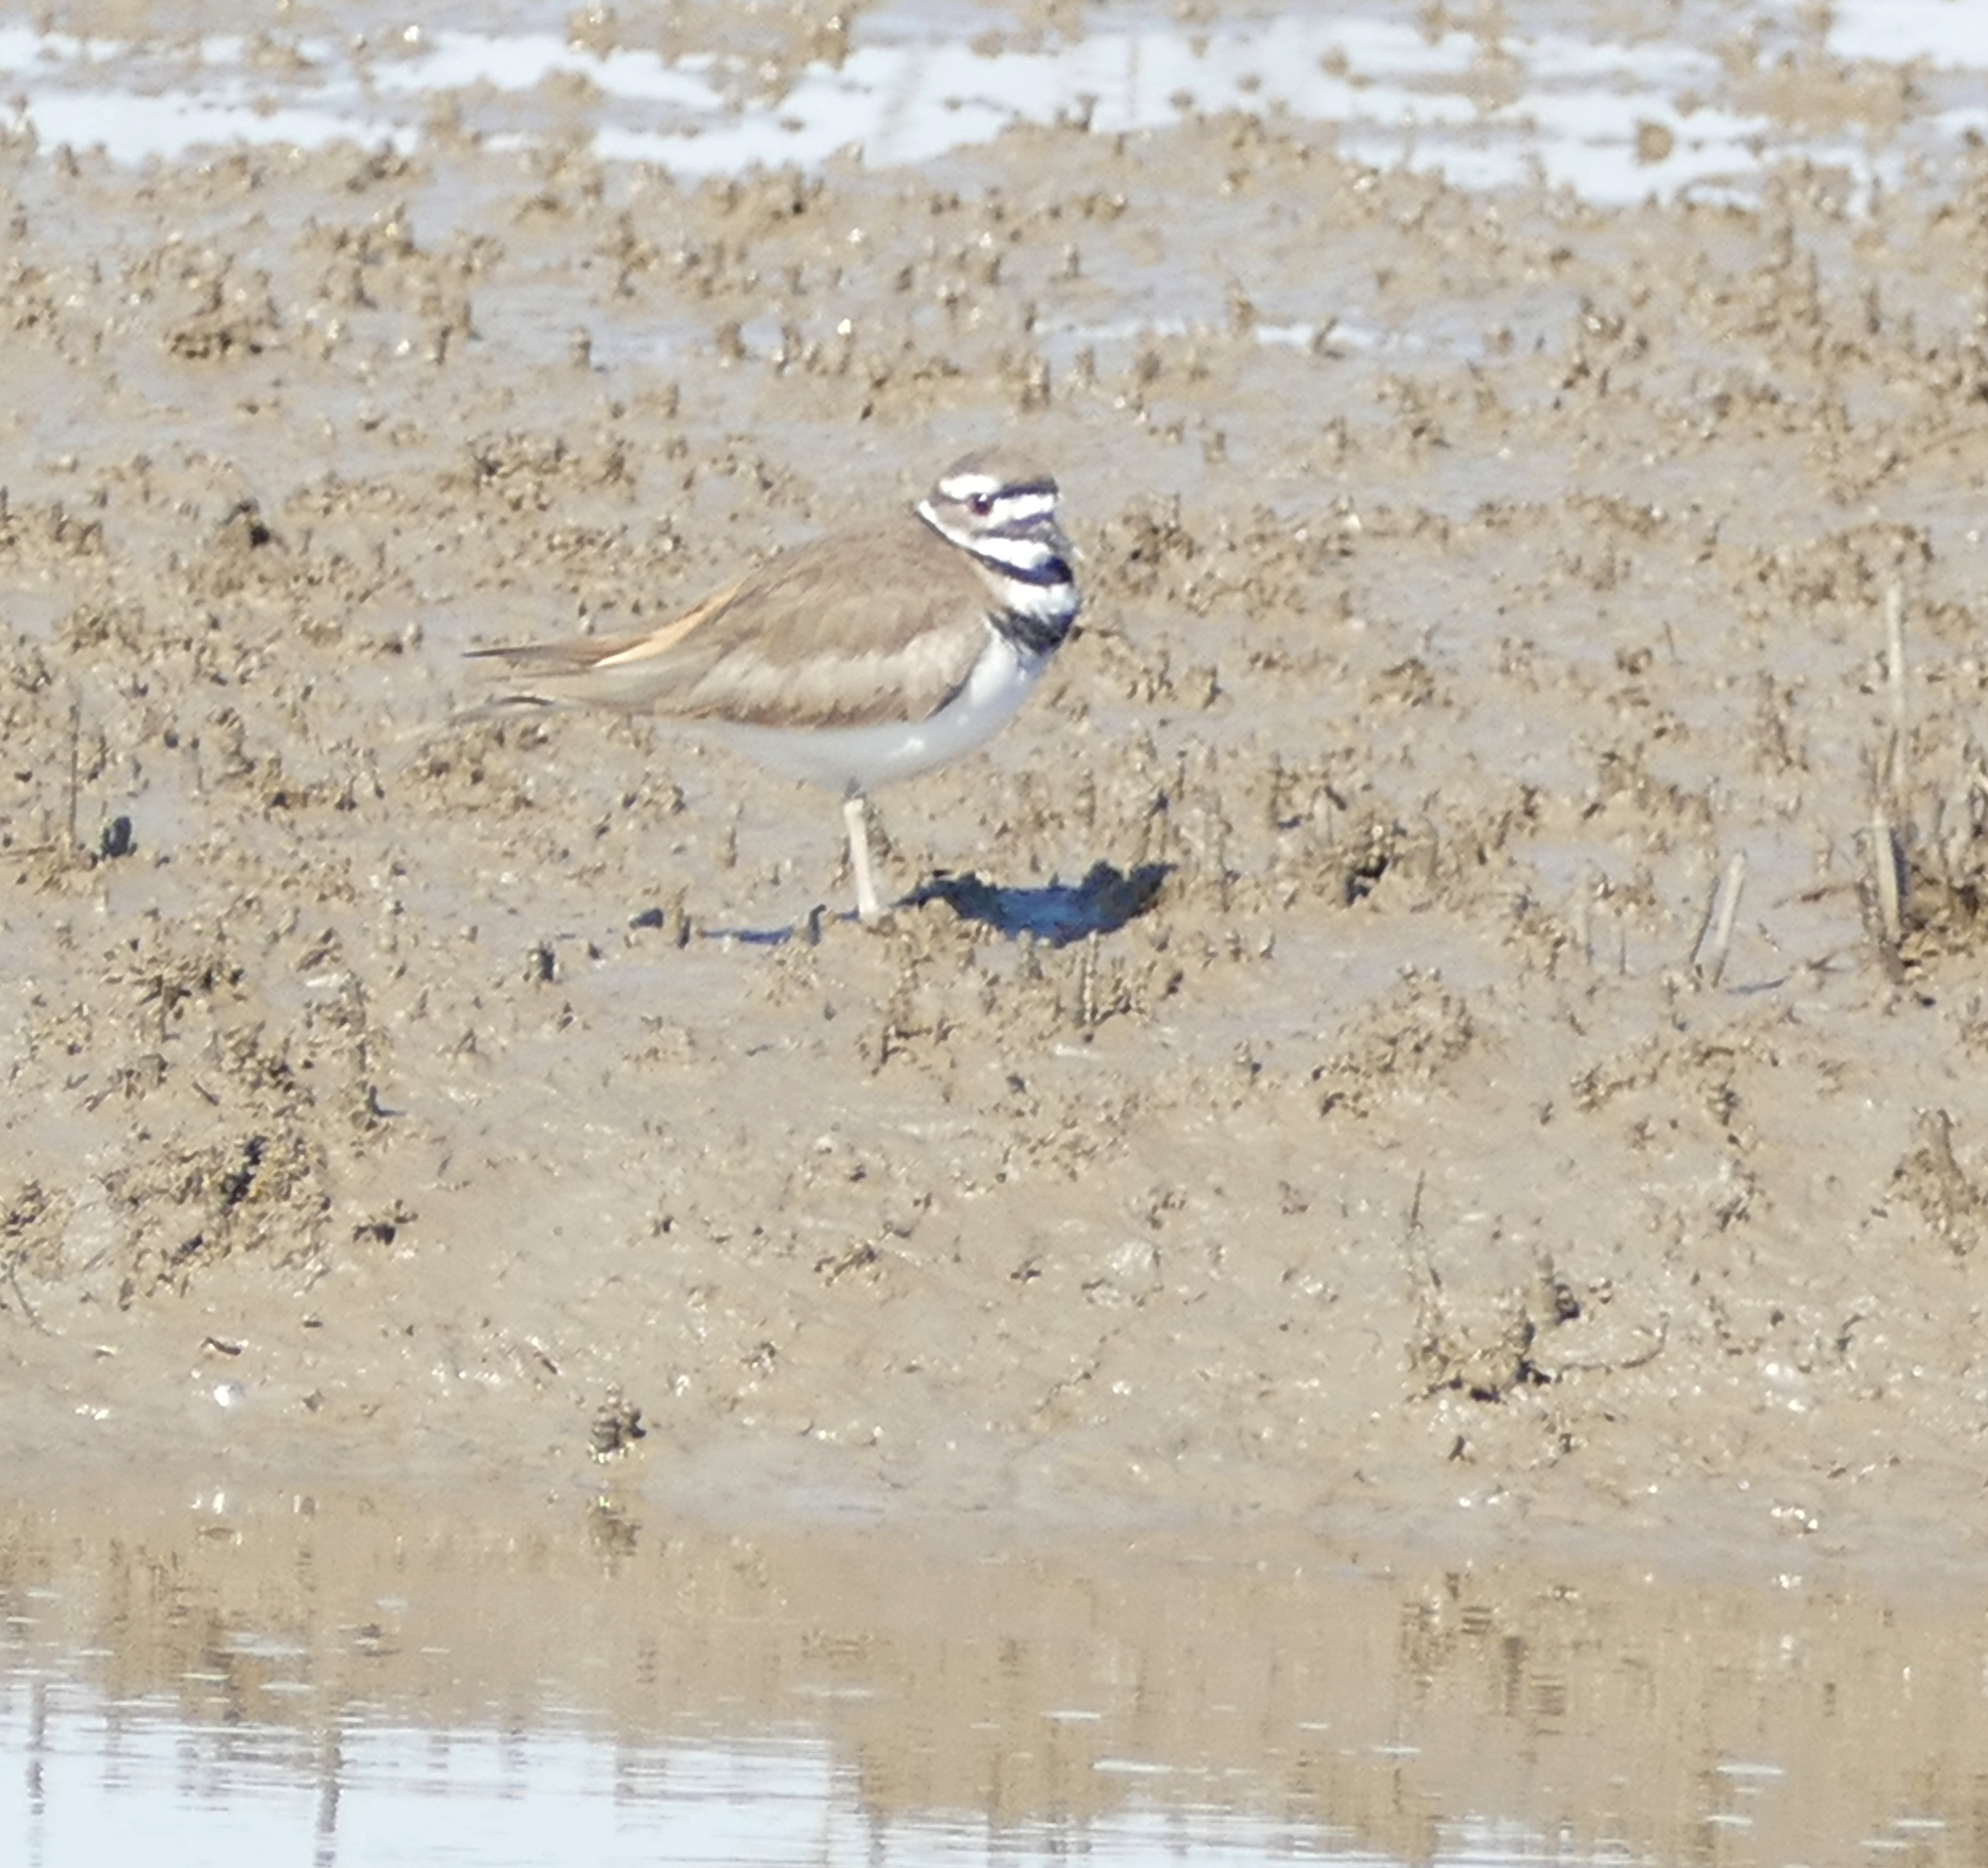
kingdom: Animalia
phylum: Chordata
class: Aves
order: Charadriiformes
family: Charadriidae
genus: Charadrius
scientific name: Charadrius vociferus
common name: Killdeer
